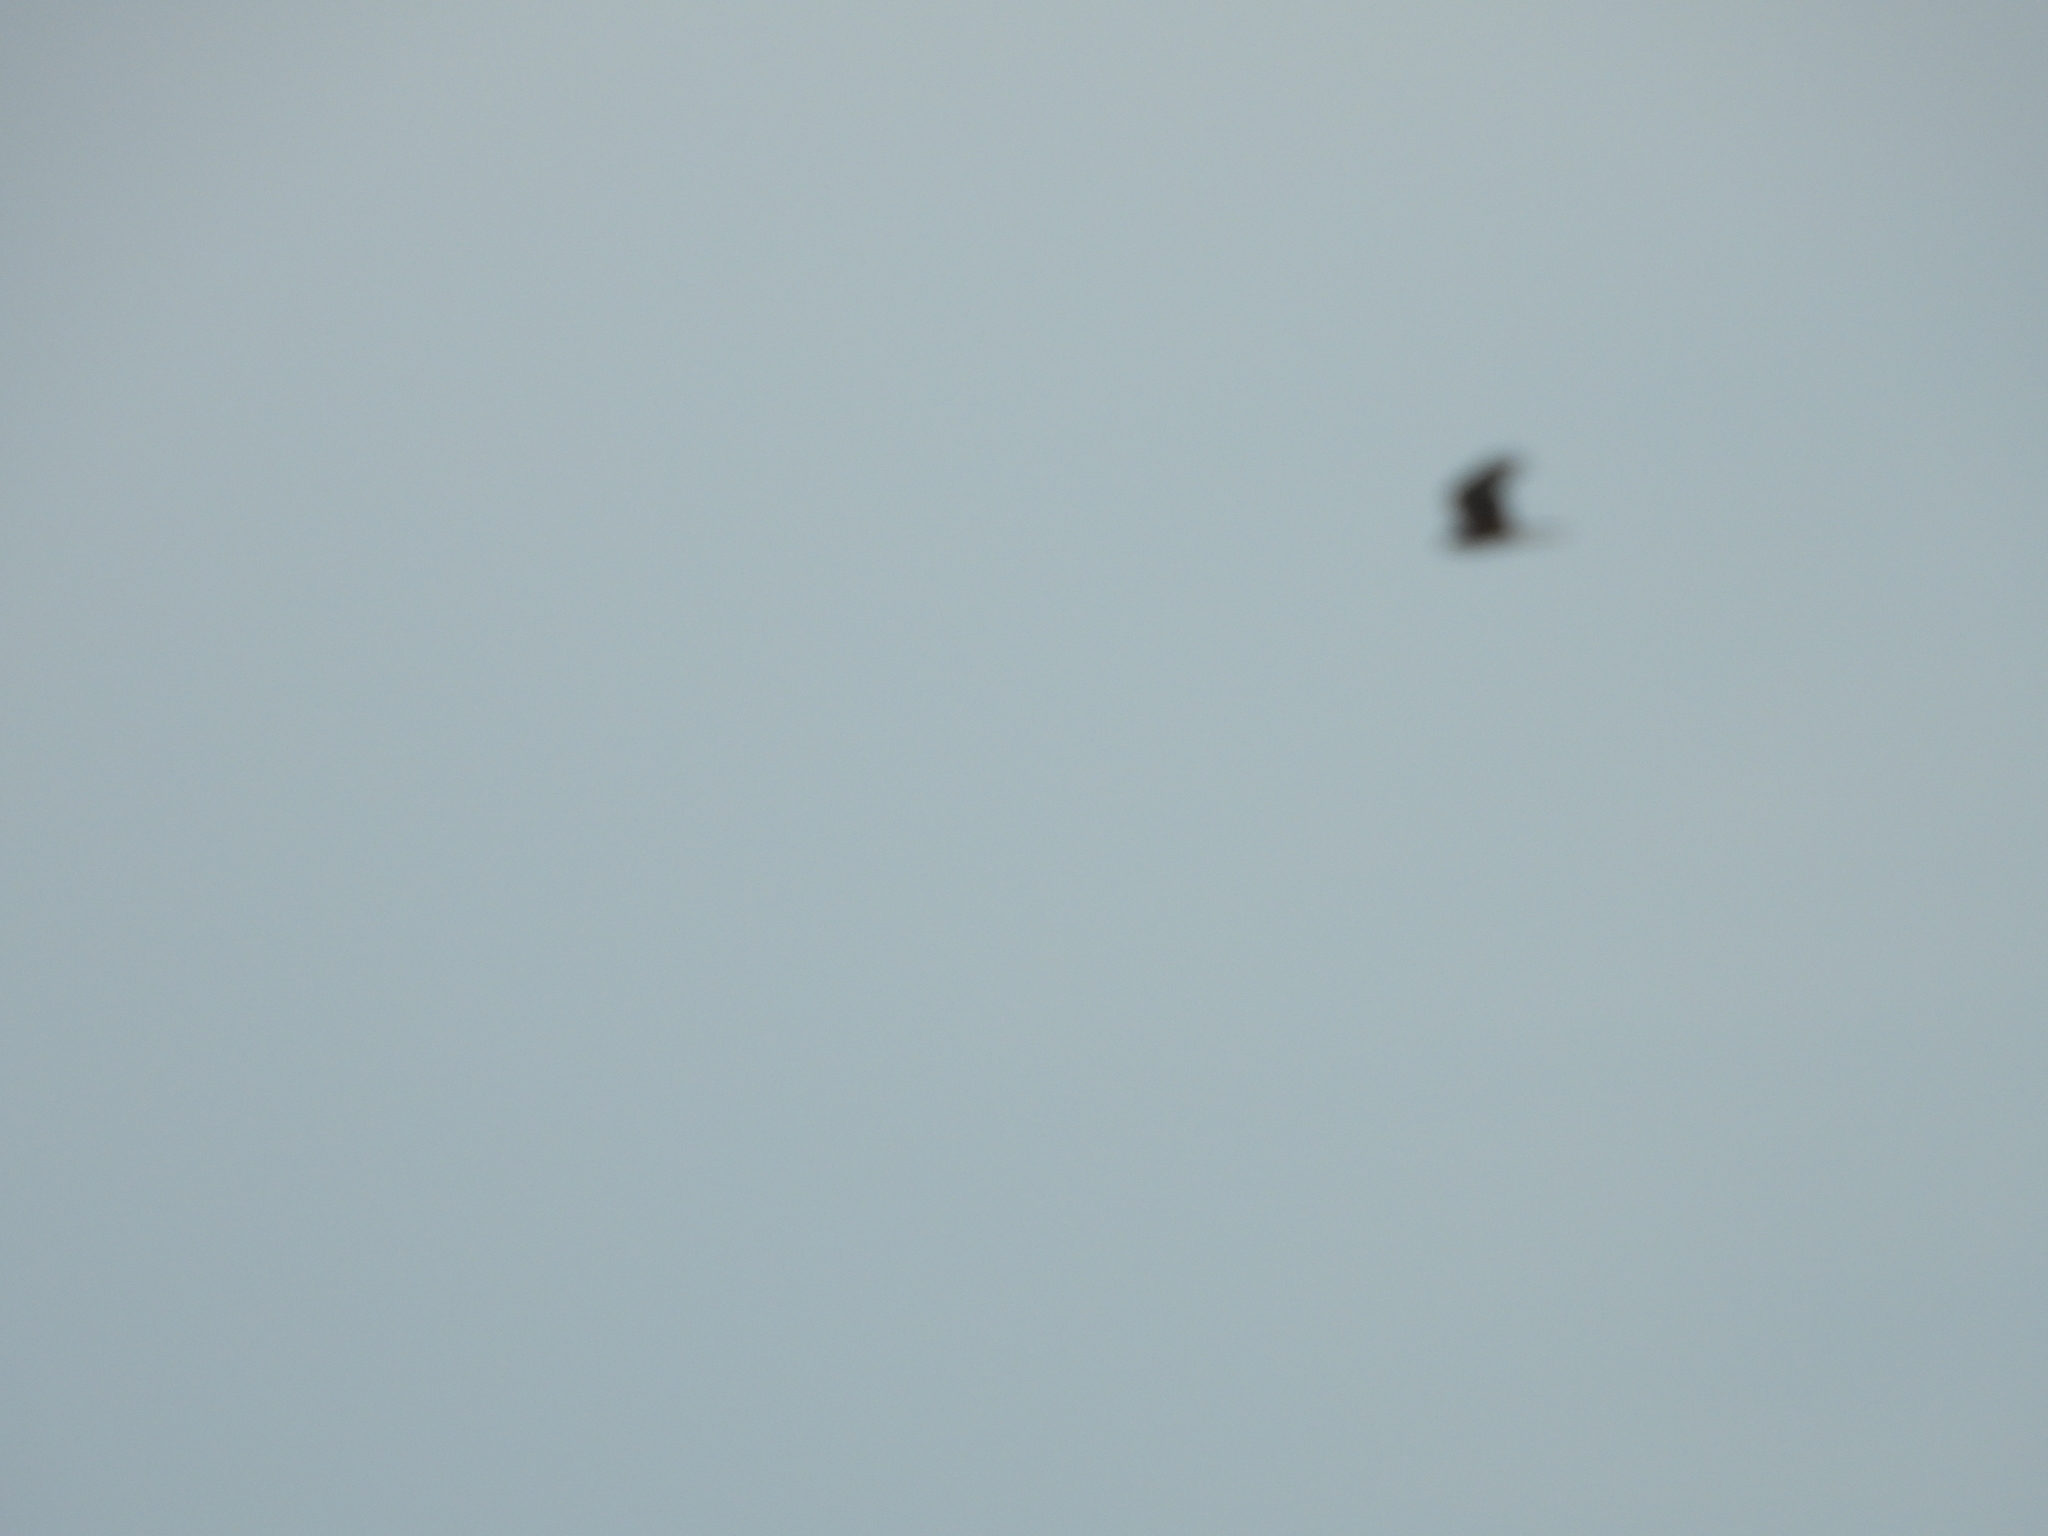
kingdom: Animalia
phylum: Chordata
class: Aves
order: Accipitriformes
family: Accipitridae
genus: Circus
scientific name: Circus approximans
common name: Swamp harrier
